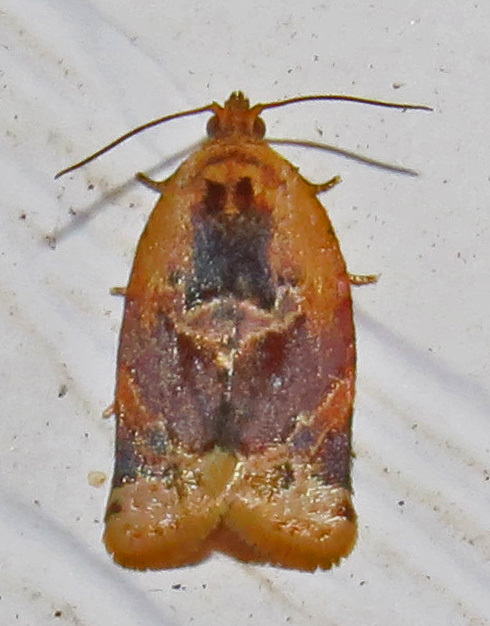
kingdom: Animalia
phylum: Arthropoda
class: Insecta
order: Lepidoptera
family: Tortricidae
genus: Argyrotaenia
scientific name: Argyrotaenia velutinana
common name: Red-banded leafroller moth
